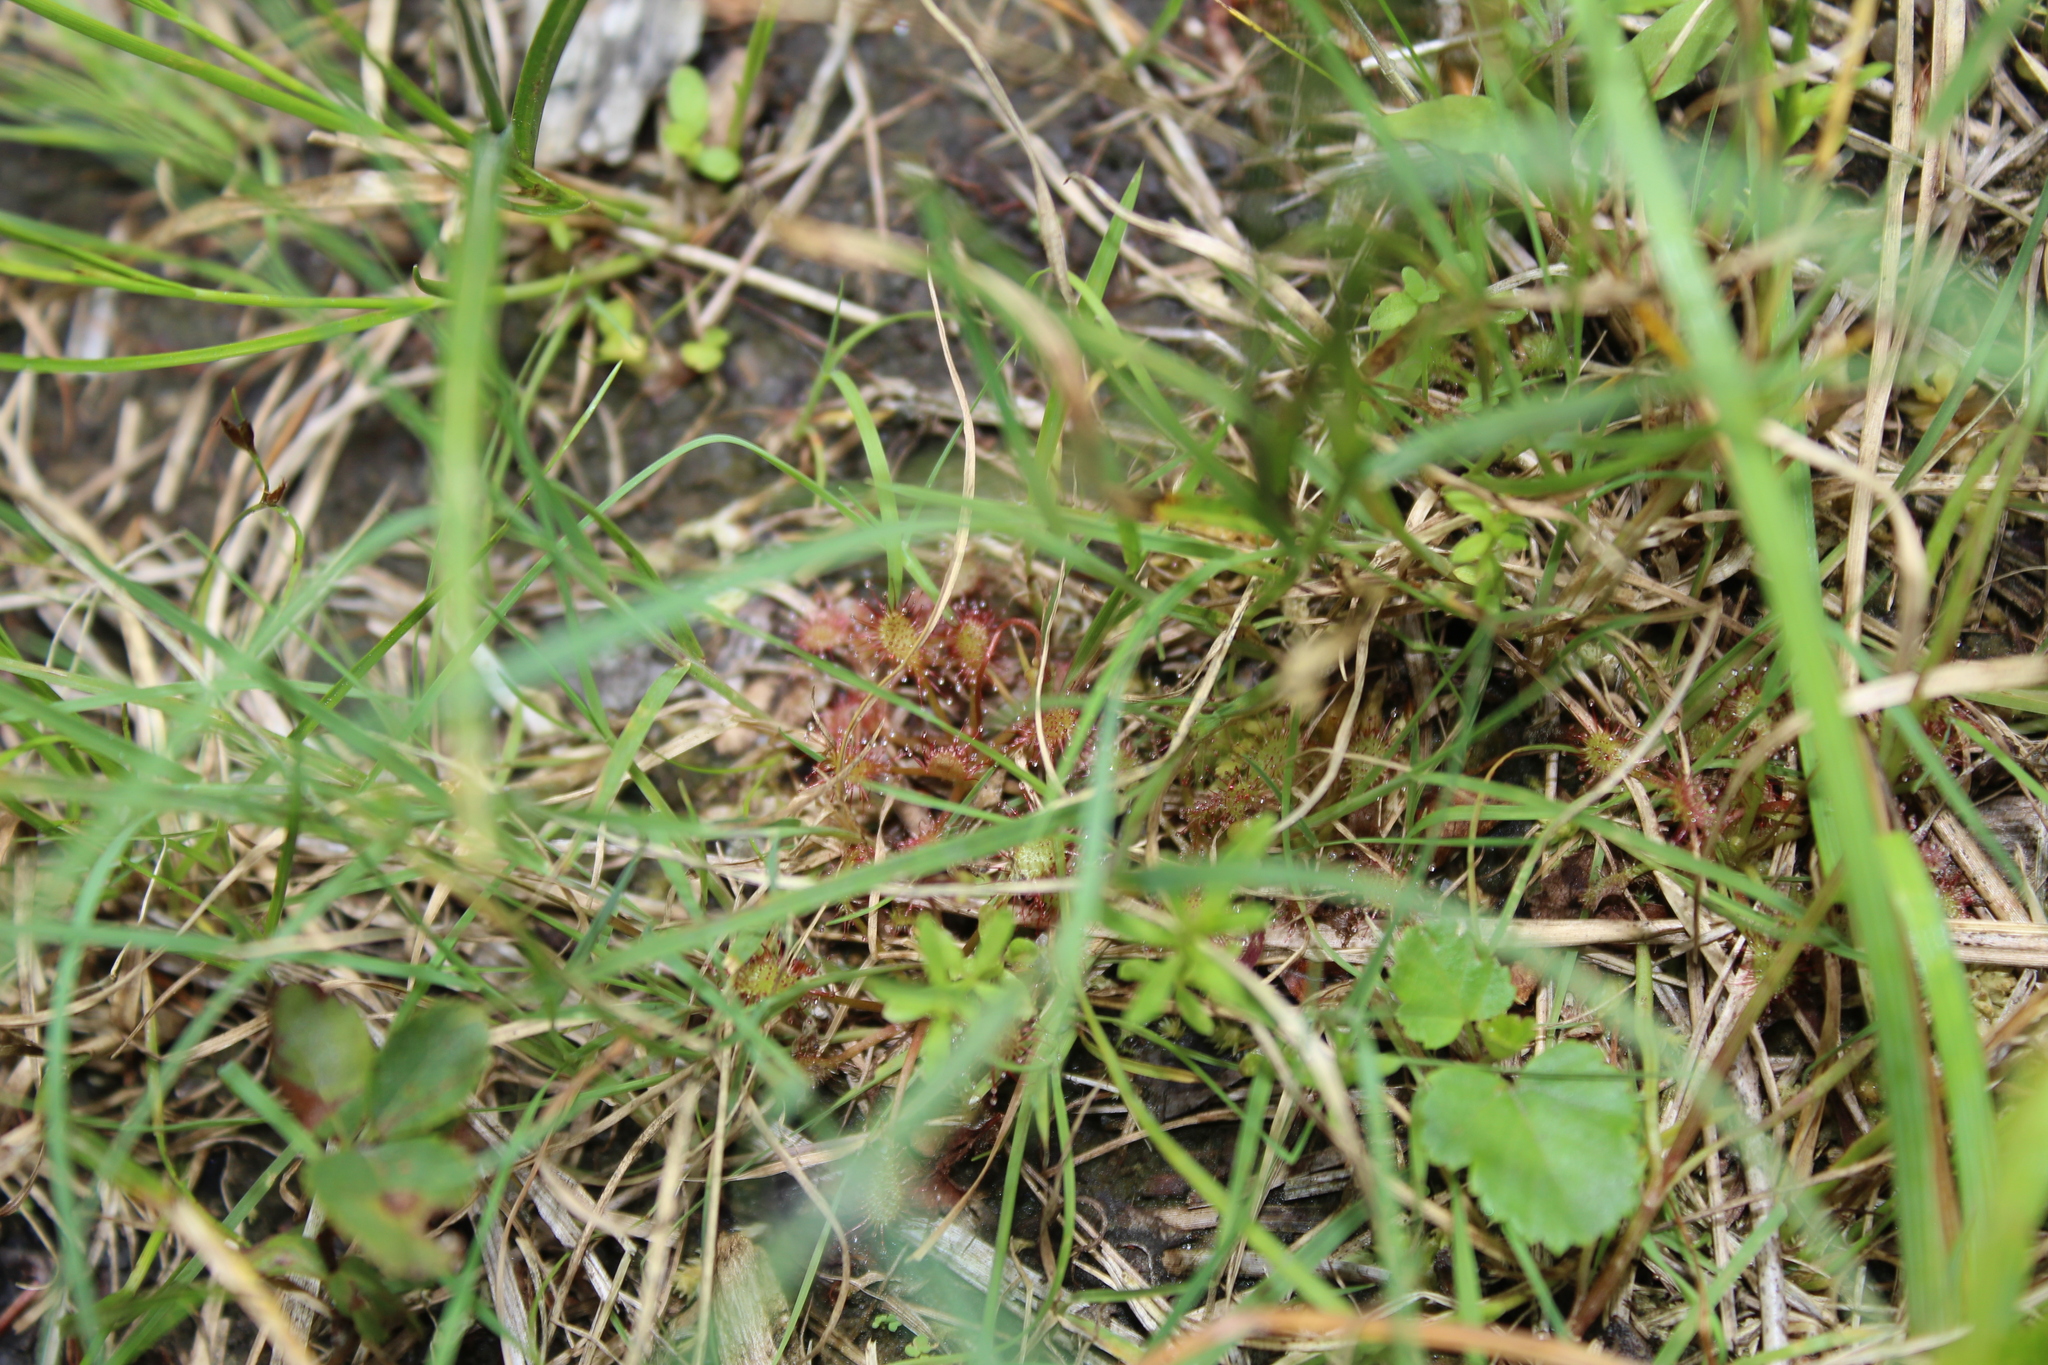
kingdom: Plantae
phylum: Tracheophyta
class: Magnoliopsida
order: Caryophyllales
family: Droseraceae
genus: Drosera
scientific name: Drosera intermedia
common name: Oblong-leaved sundew
